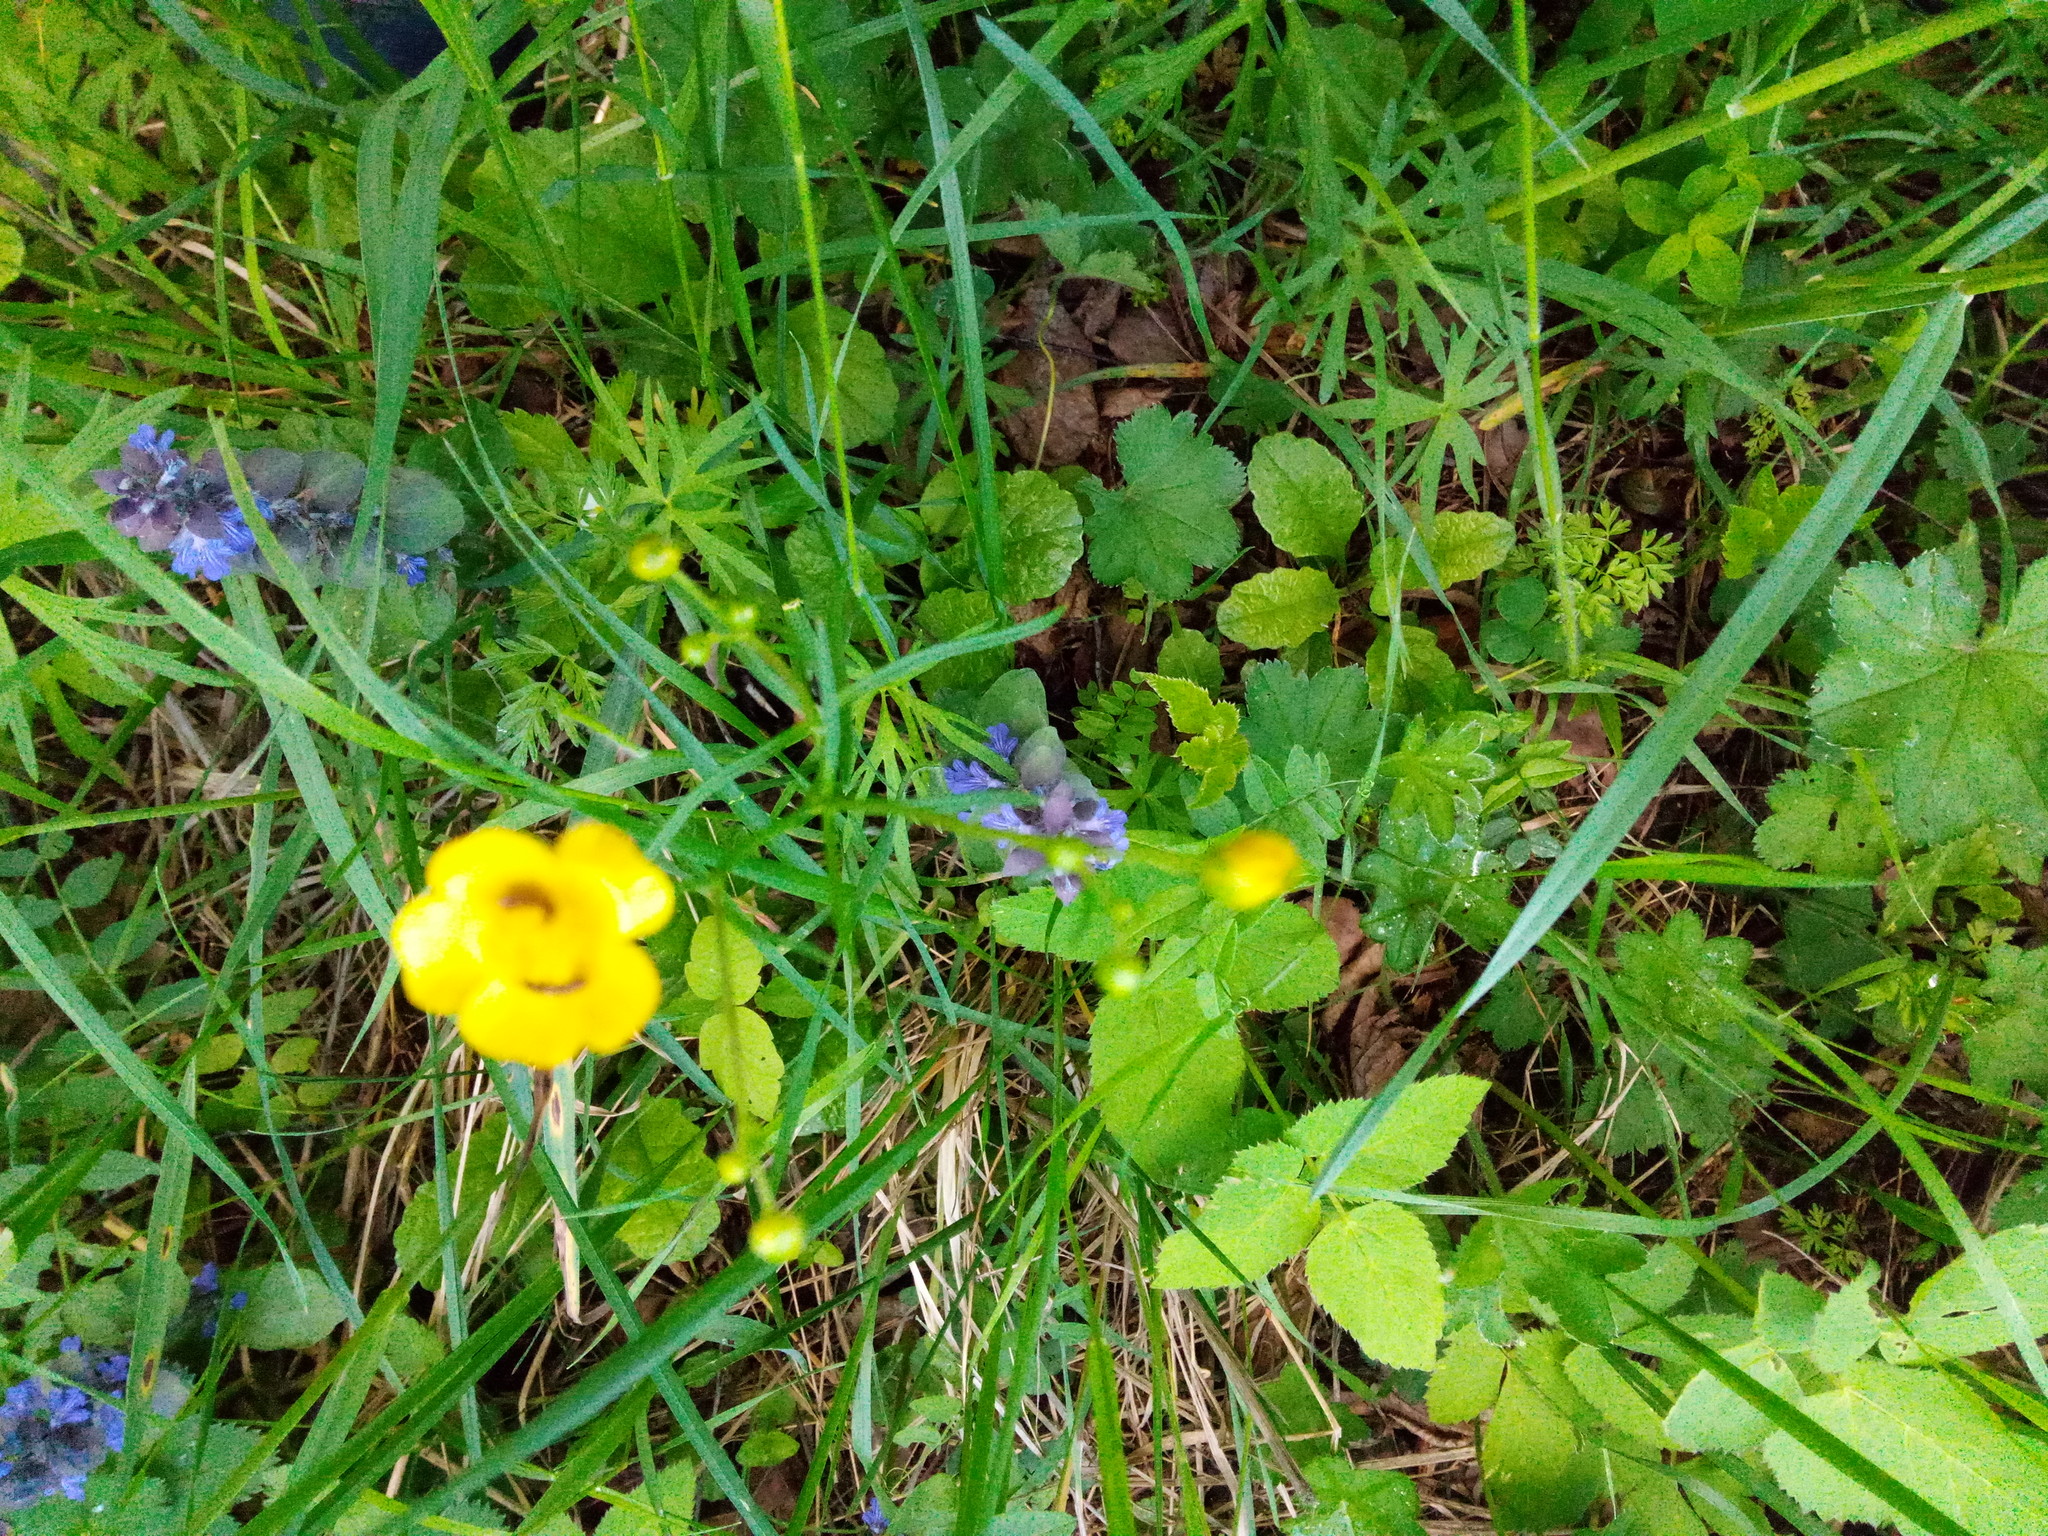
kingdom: Plantae
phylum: Tracheophyta
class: Magnoliopsida
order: Ranunculales
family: Ranunculaceae
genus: Ranunculus
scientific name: Ranunculus acris
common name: Meadow buttercup
